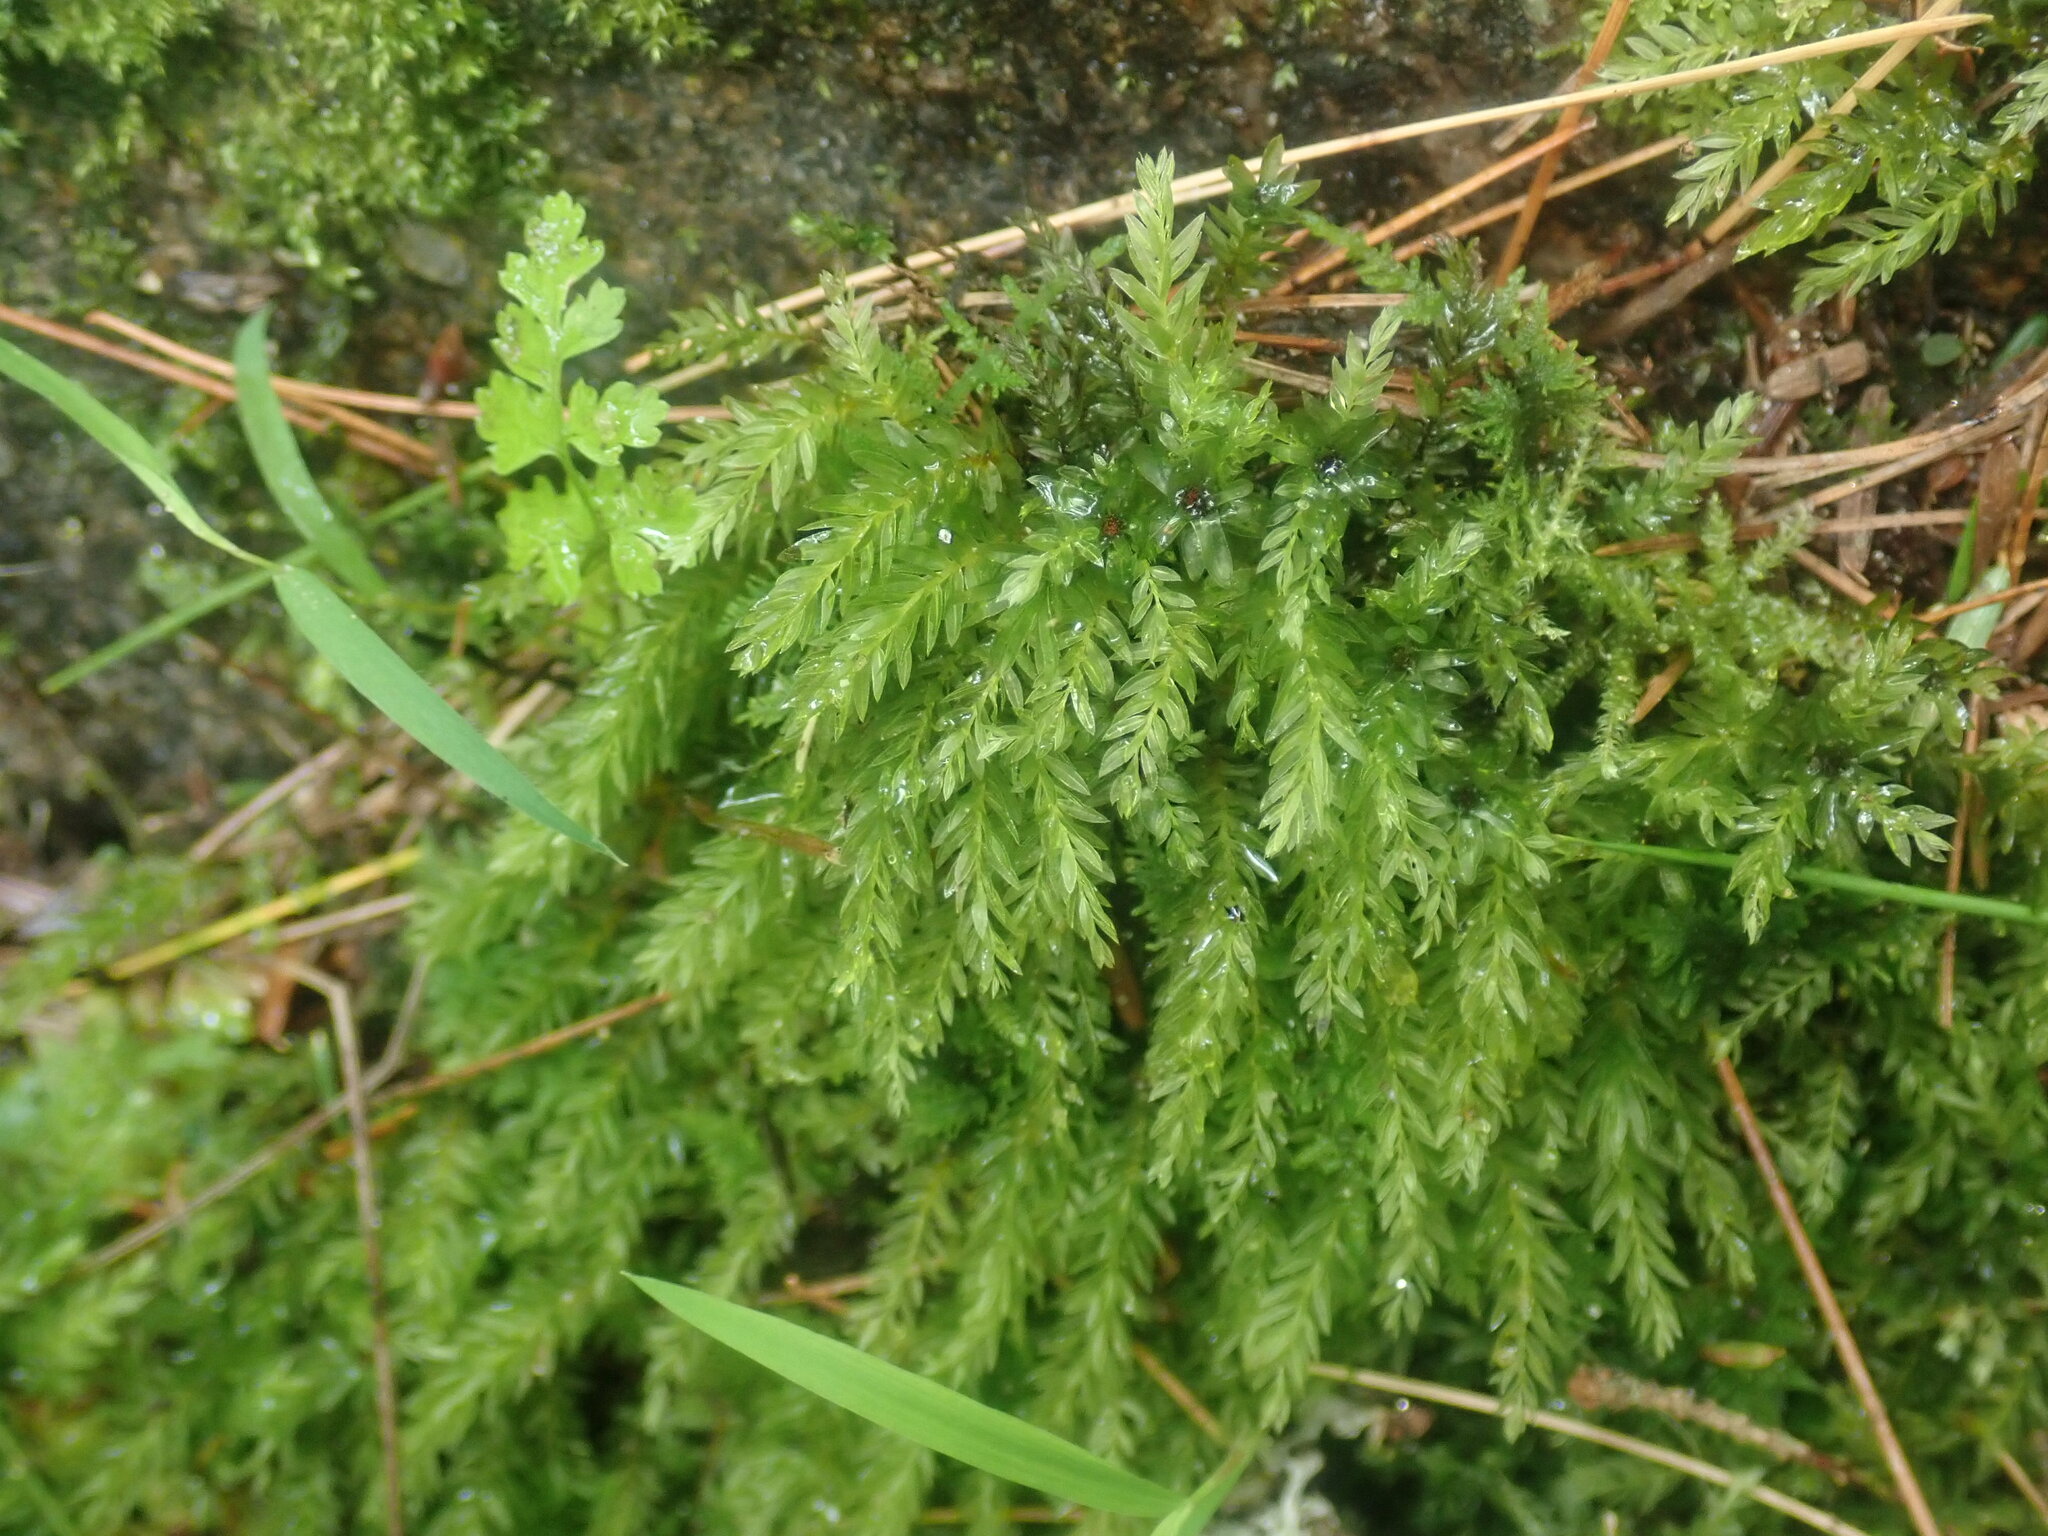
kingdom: Plantae
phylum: Bryophyta
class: Bryopsida
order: Bryales
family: Mniaceae
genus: Mnium
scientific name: Mnium hornum
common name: Swan's-neck leafy moss
